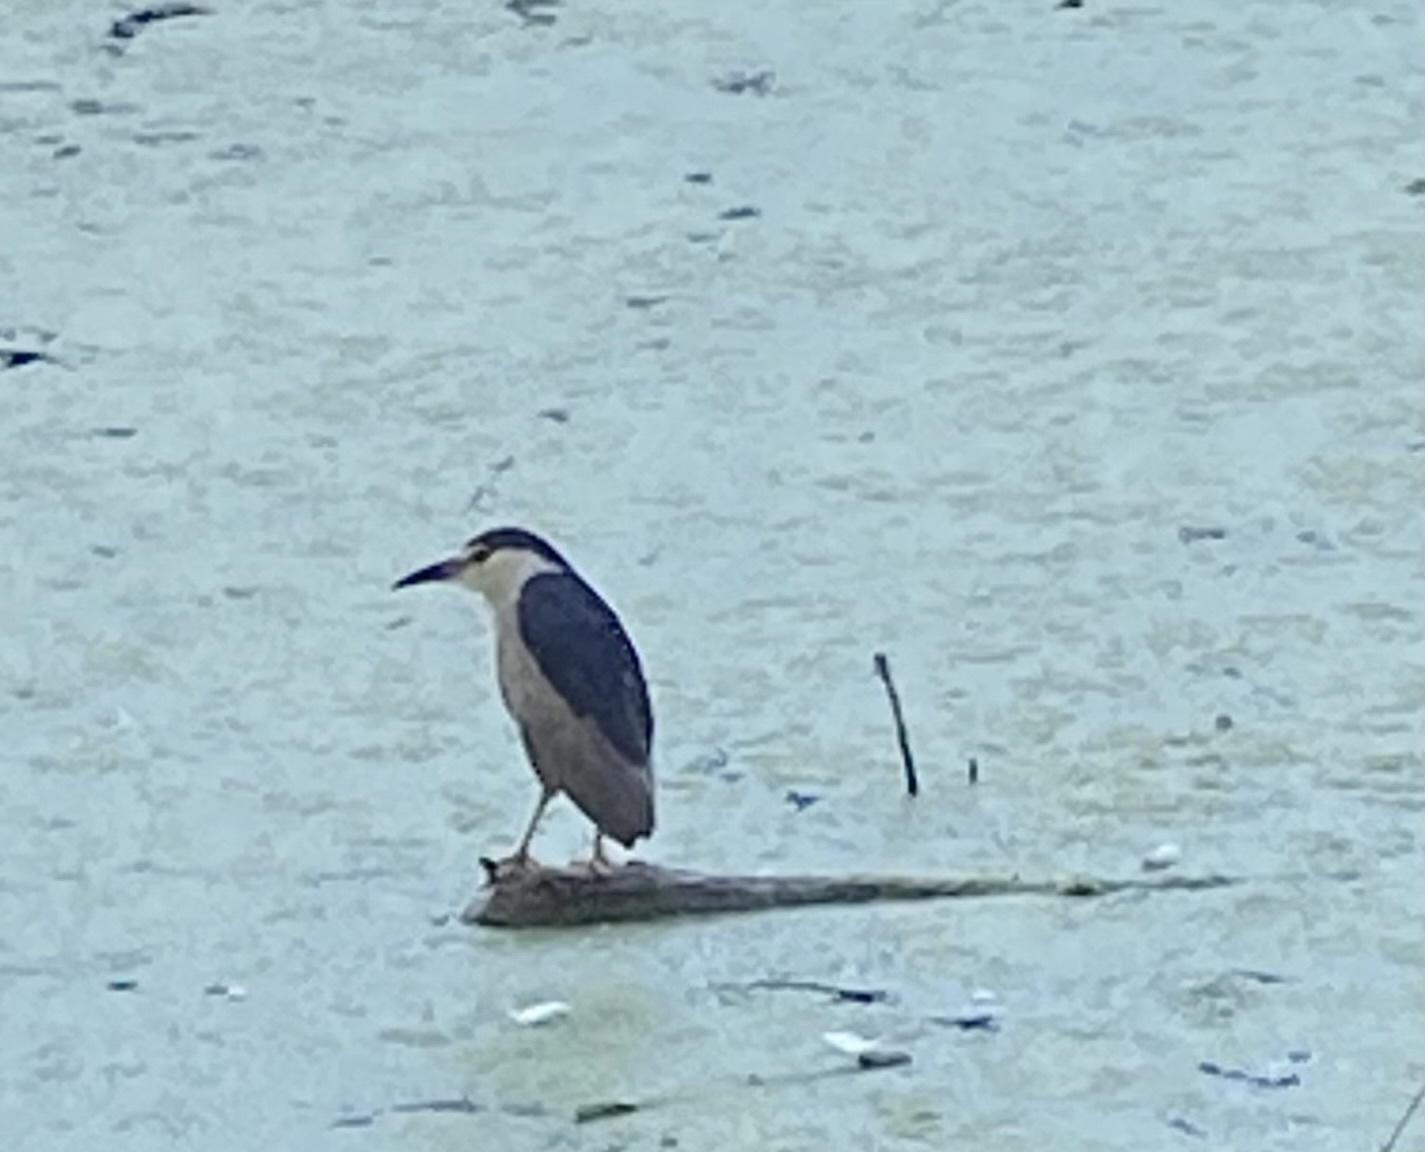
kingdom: Animalia
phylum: Chordata
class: Aves
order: Pelecaniformes
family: Ardeidae
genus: Nycticorax
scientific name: Nycticorax nycticorax
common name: Black-crowned night heron
